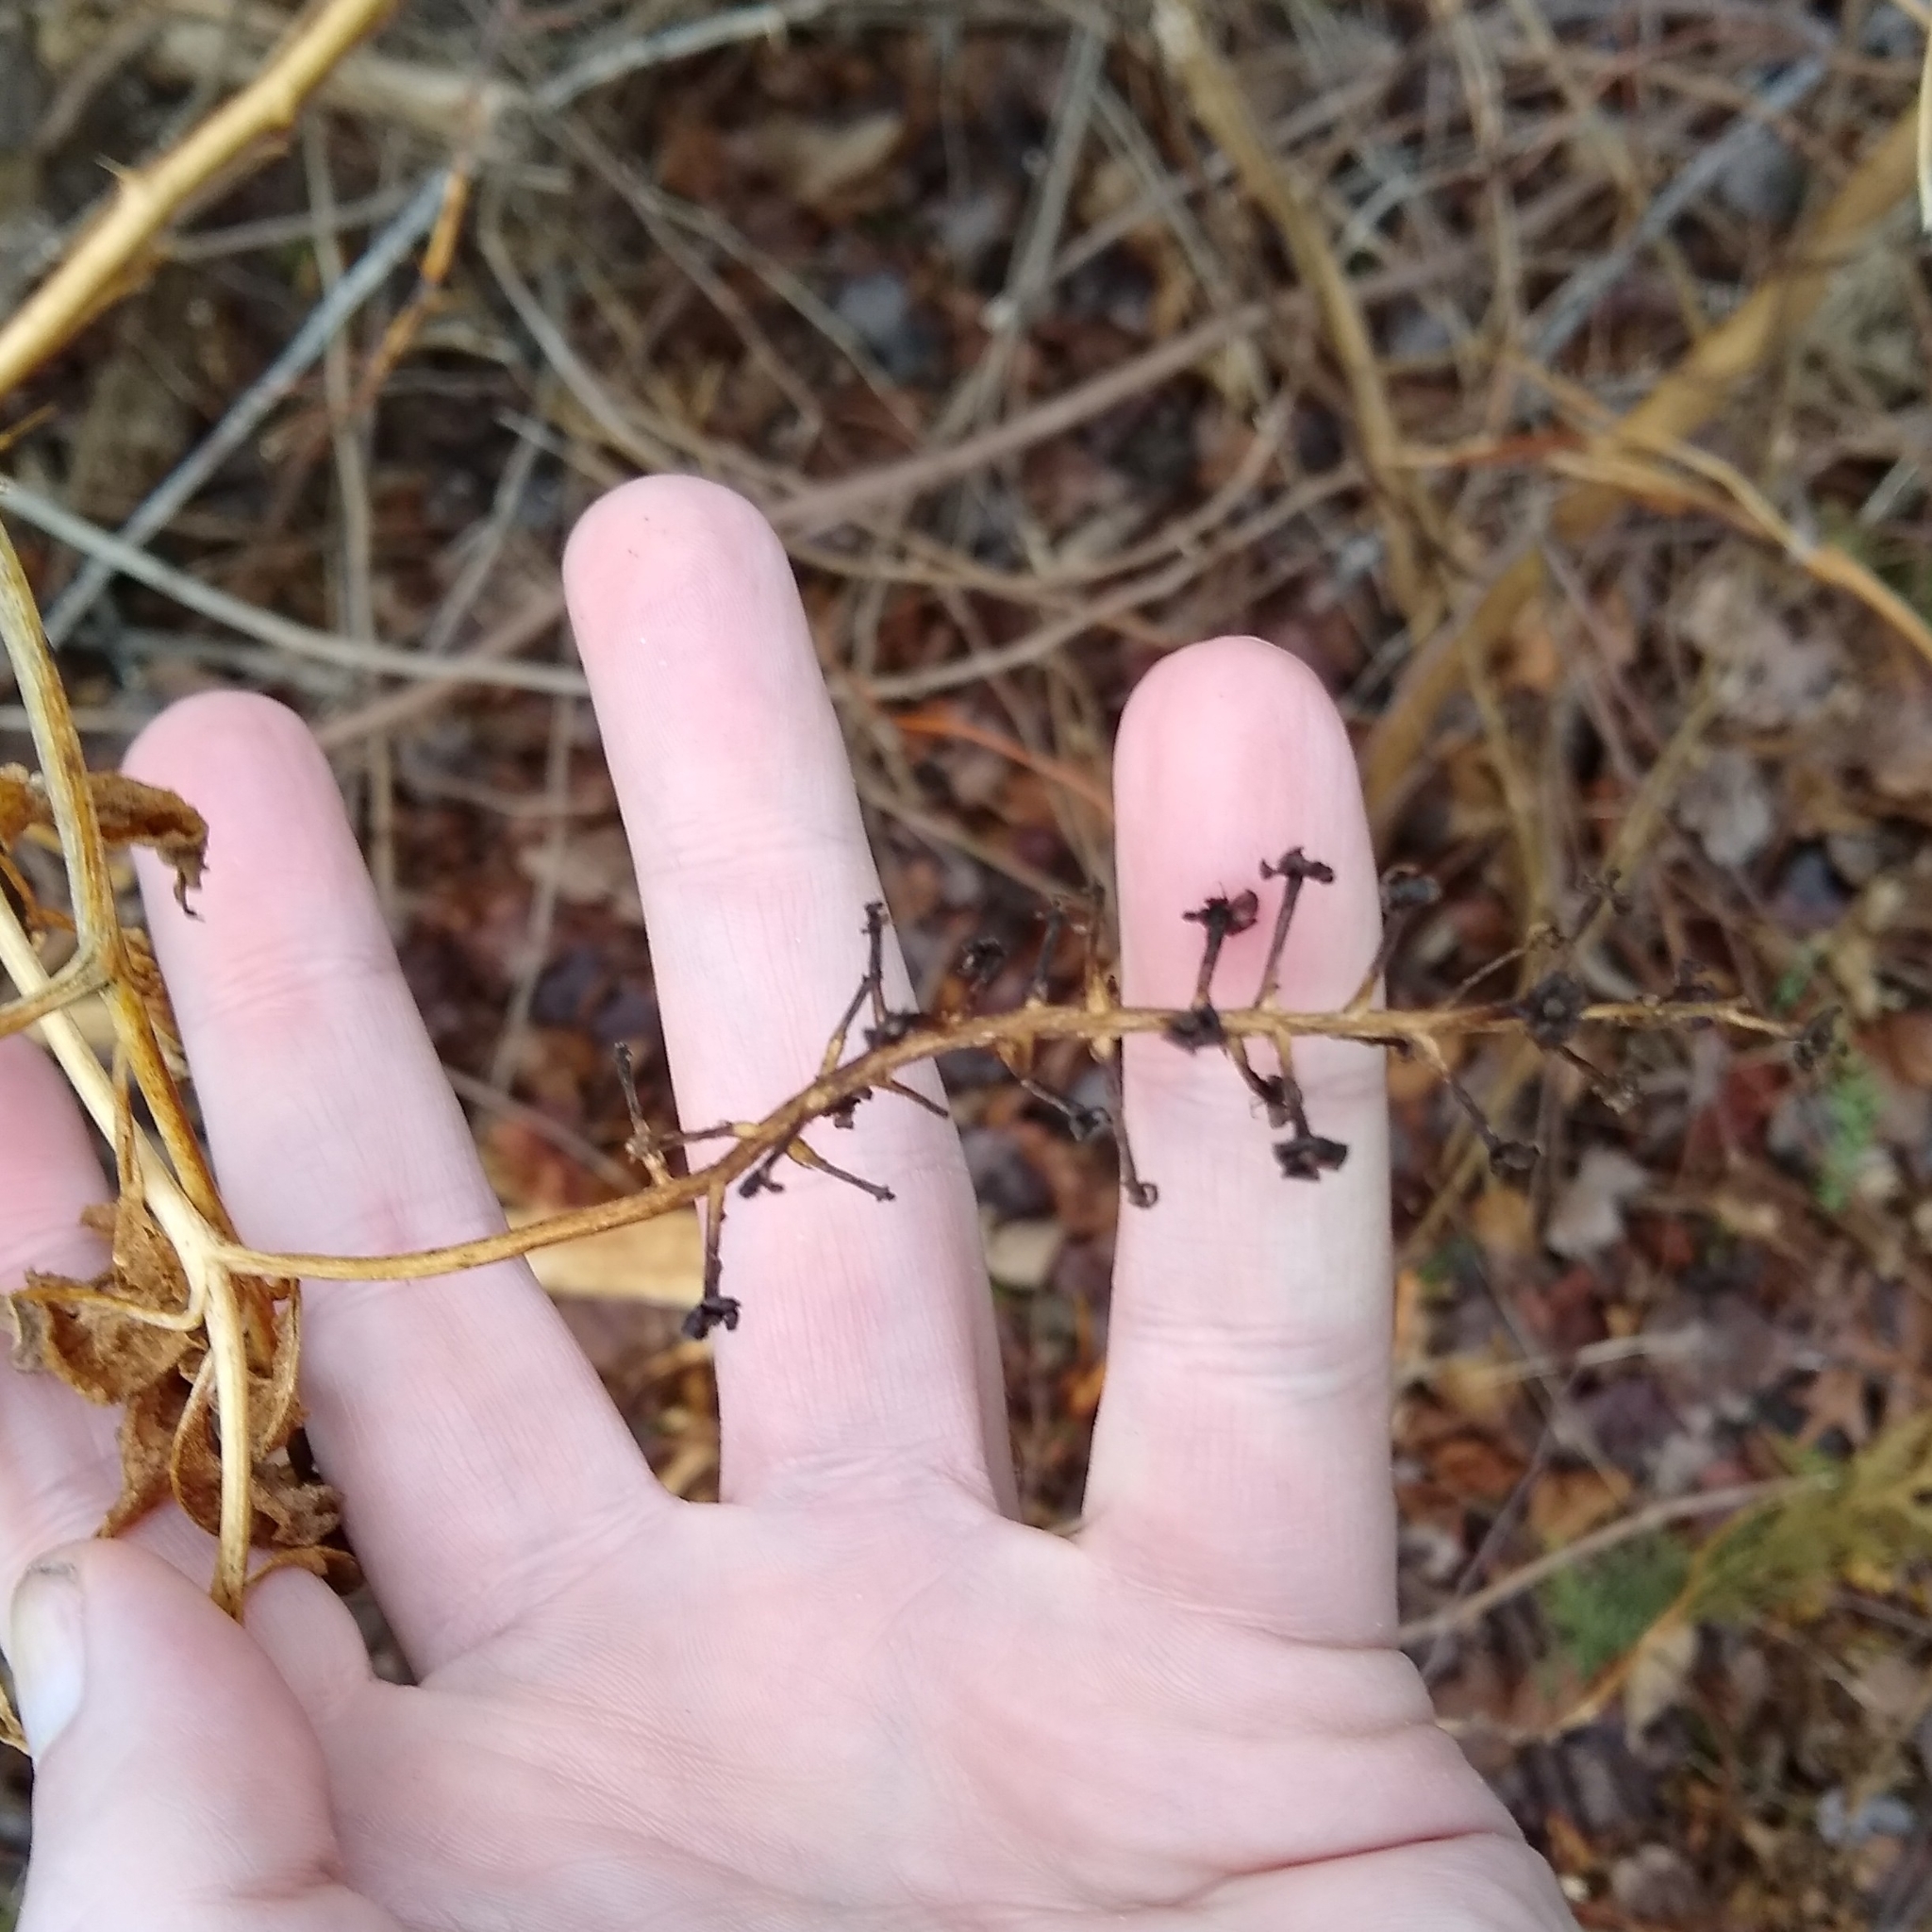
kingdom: Plantae
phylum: Tracheophyta
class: Magnoliopsida
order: Caryophyllales
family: Phytolaccaceae
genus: Phytolacca
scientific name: Phytolacca americana
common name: American pokeweed
